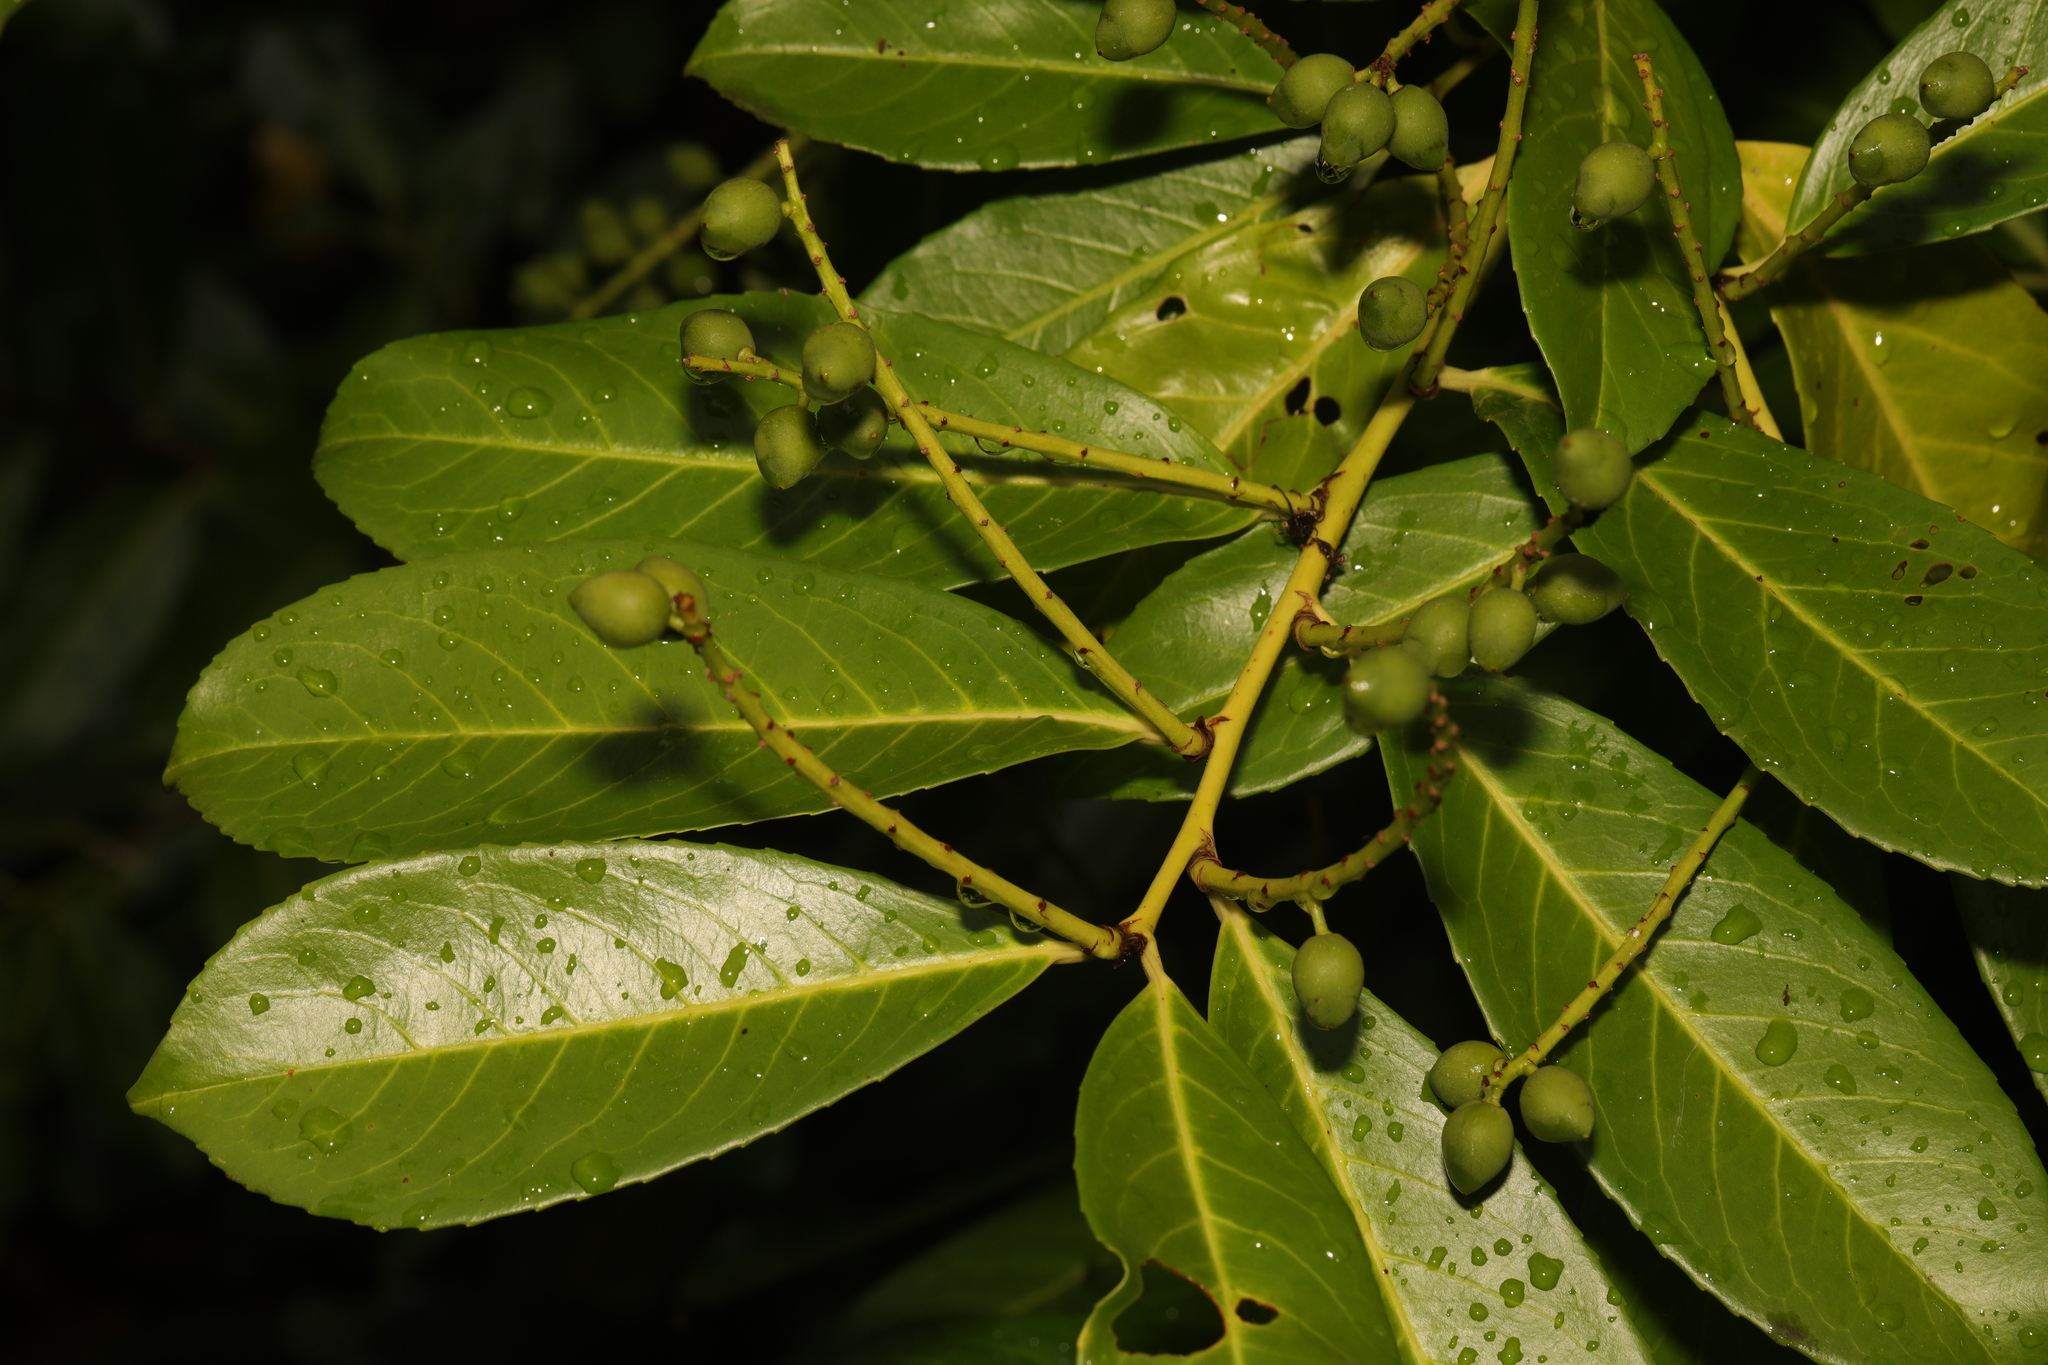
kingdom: Plantae
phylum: Tracheophyta
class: Magnoliopsida
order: Rosales
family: Rosaceae
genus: Prunus
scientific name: Prunus laurocerasus
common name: Cherry laurel
